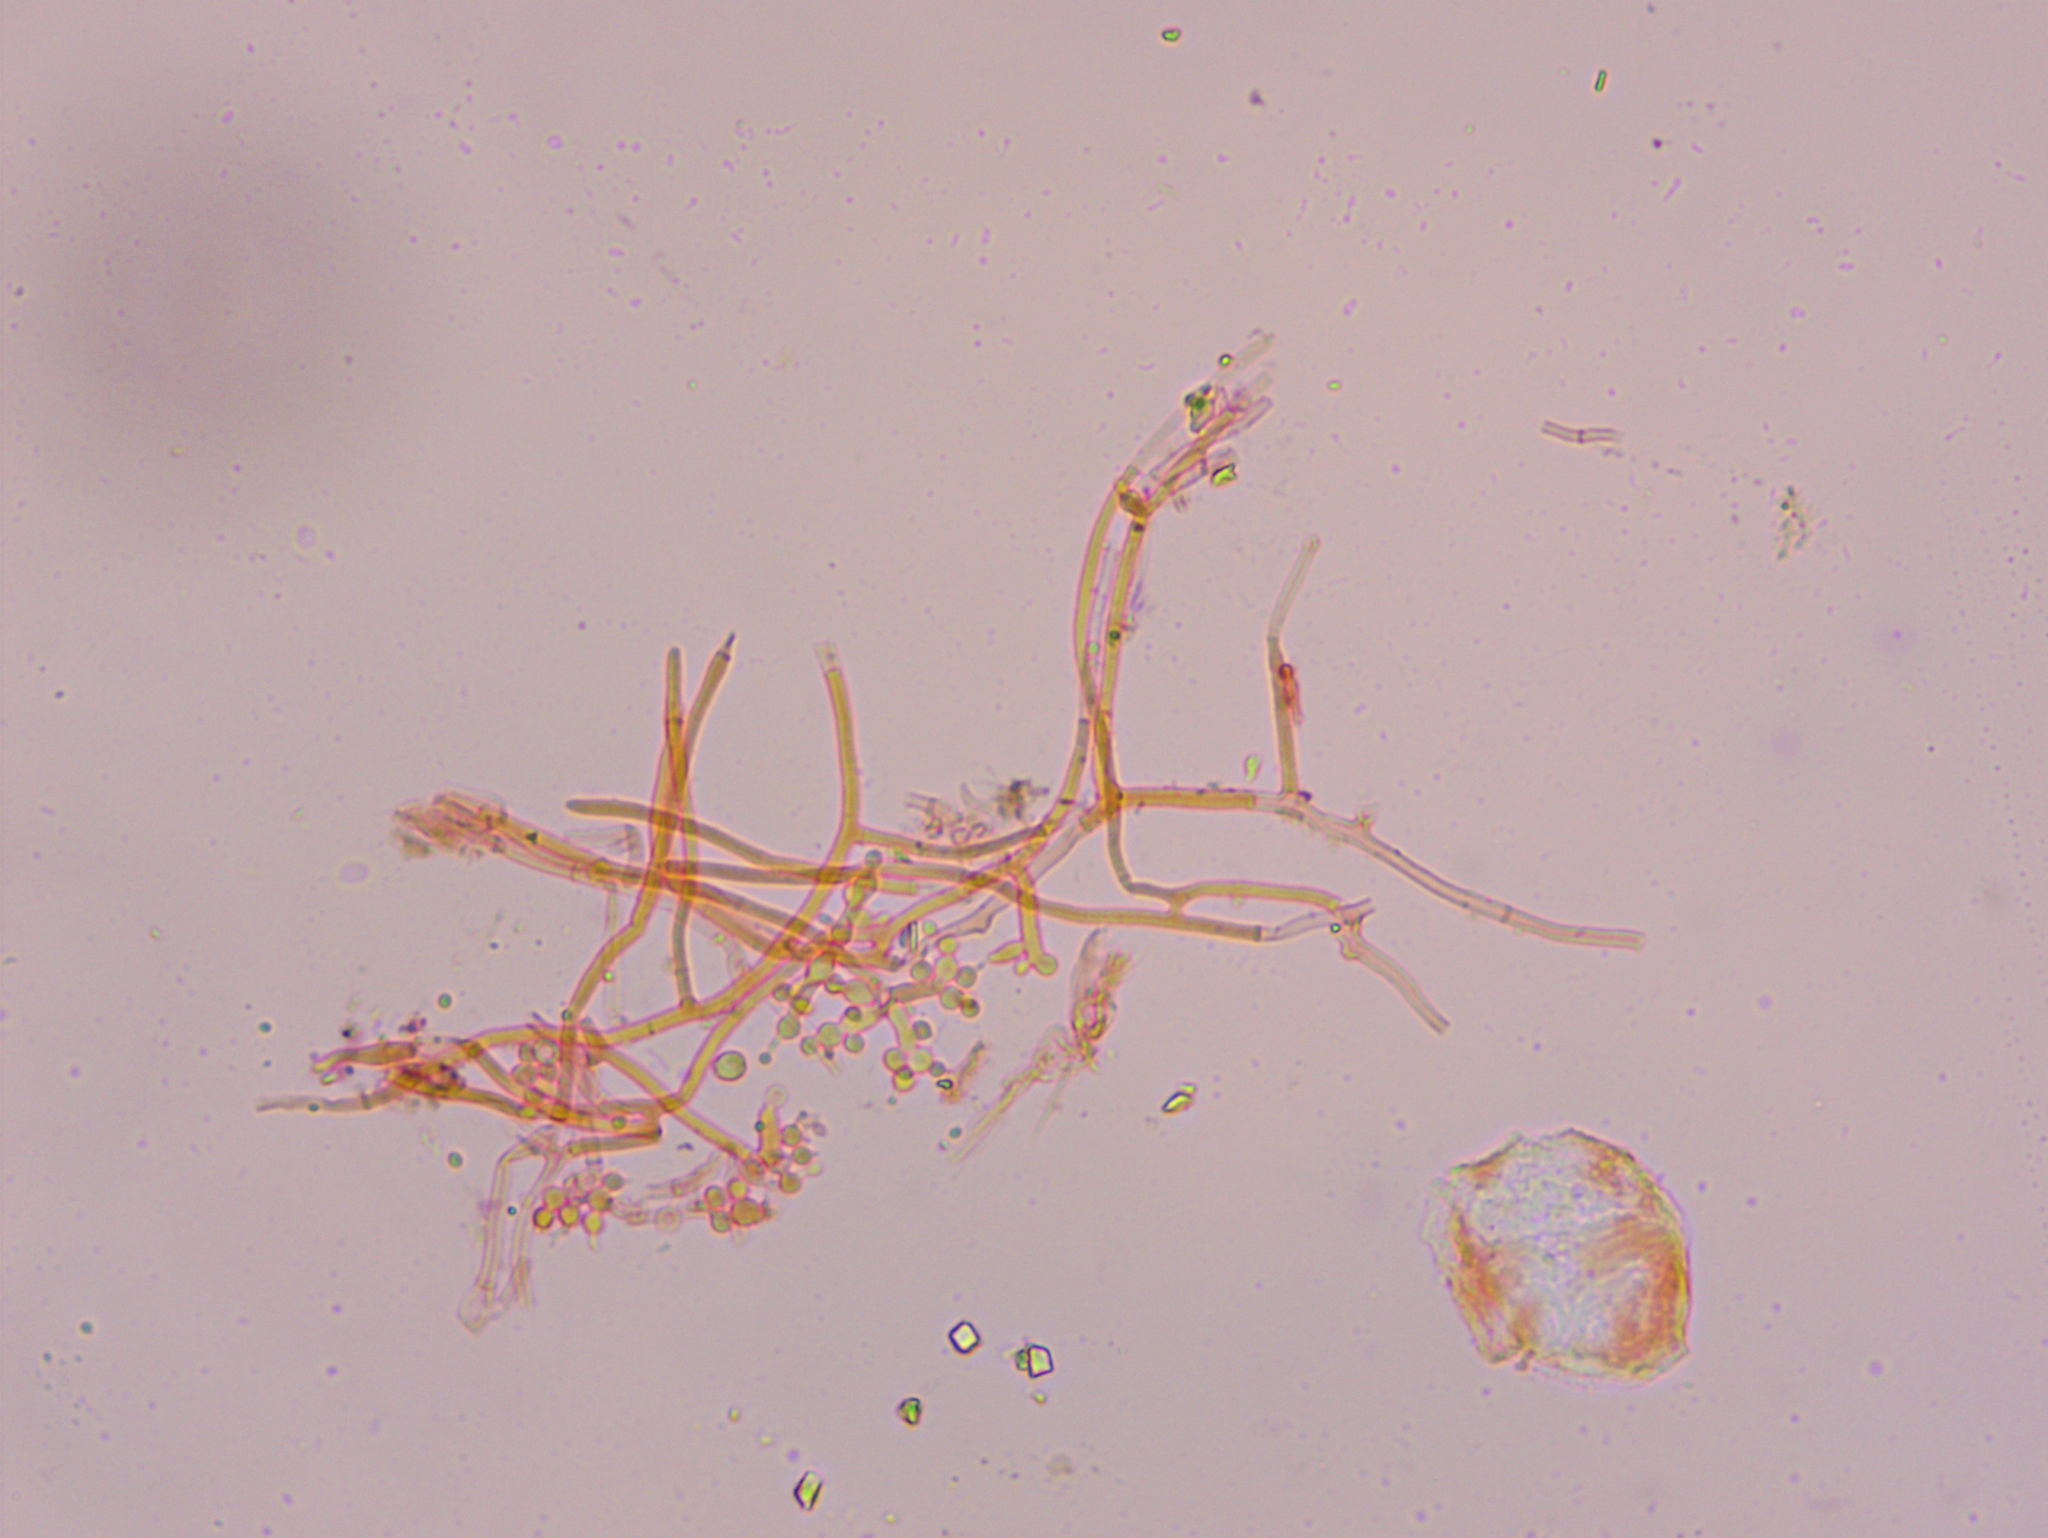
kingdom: Fungi
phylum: Ascomycota
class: Sordariomycetes
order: Hypocreales
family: Cordycipitaceae
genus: Beauveria
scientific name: Beauveria bassiana
